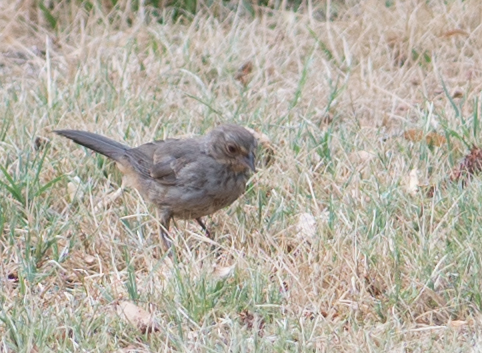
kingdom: Animalia
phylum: Chordata
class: Aves
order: Passeriformes
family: Passerellidae
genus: Melozone
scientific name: Melozone crissalis
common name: California towhee
